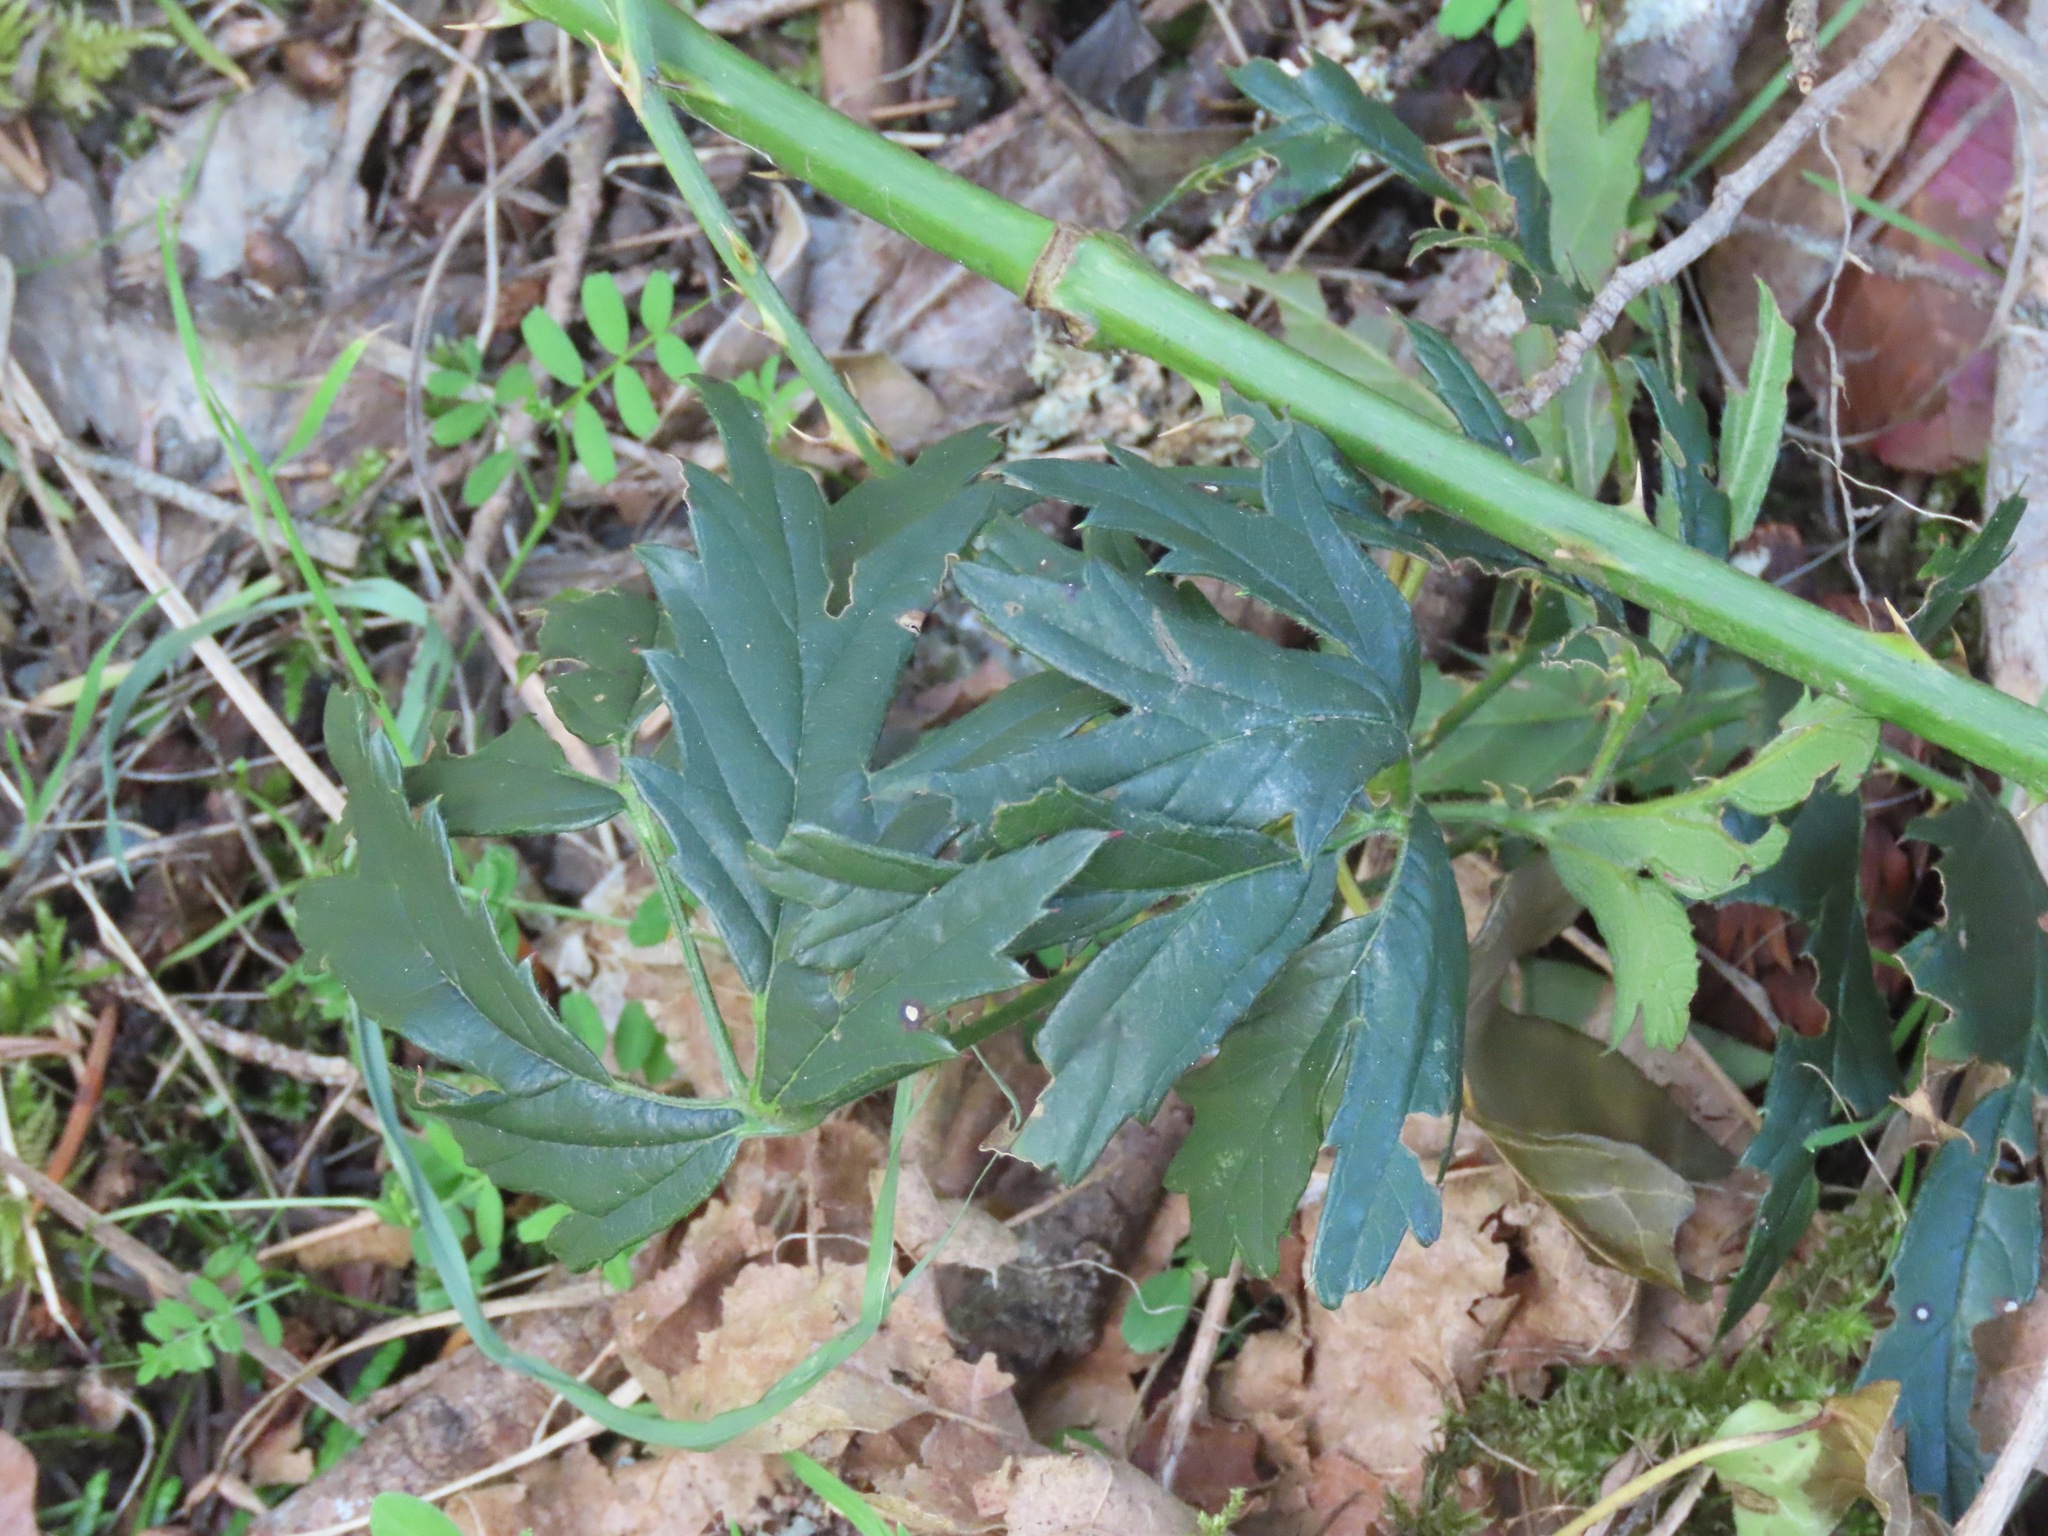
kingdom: Plantae
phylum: Tracheophyta
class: Magnoliopsida
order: Rosales
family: Rosaceae
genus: Rubus
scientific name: Rubus laciniatus
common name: Evergreen blackberry
